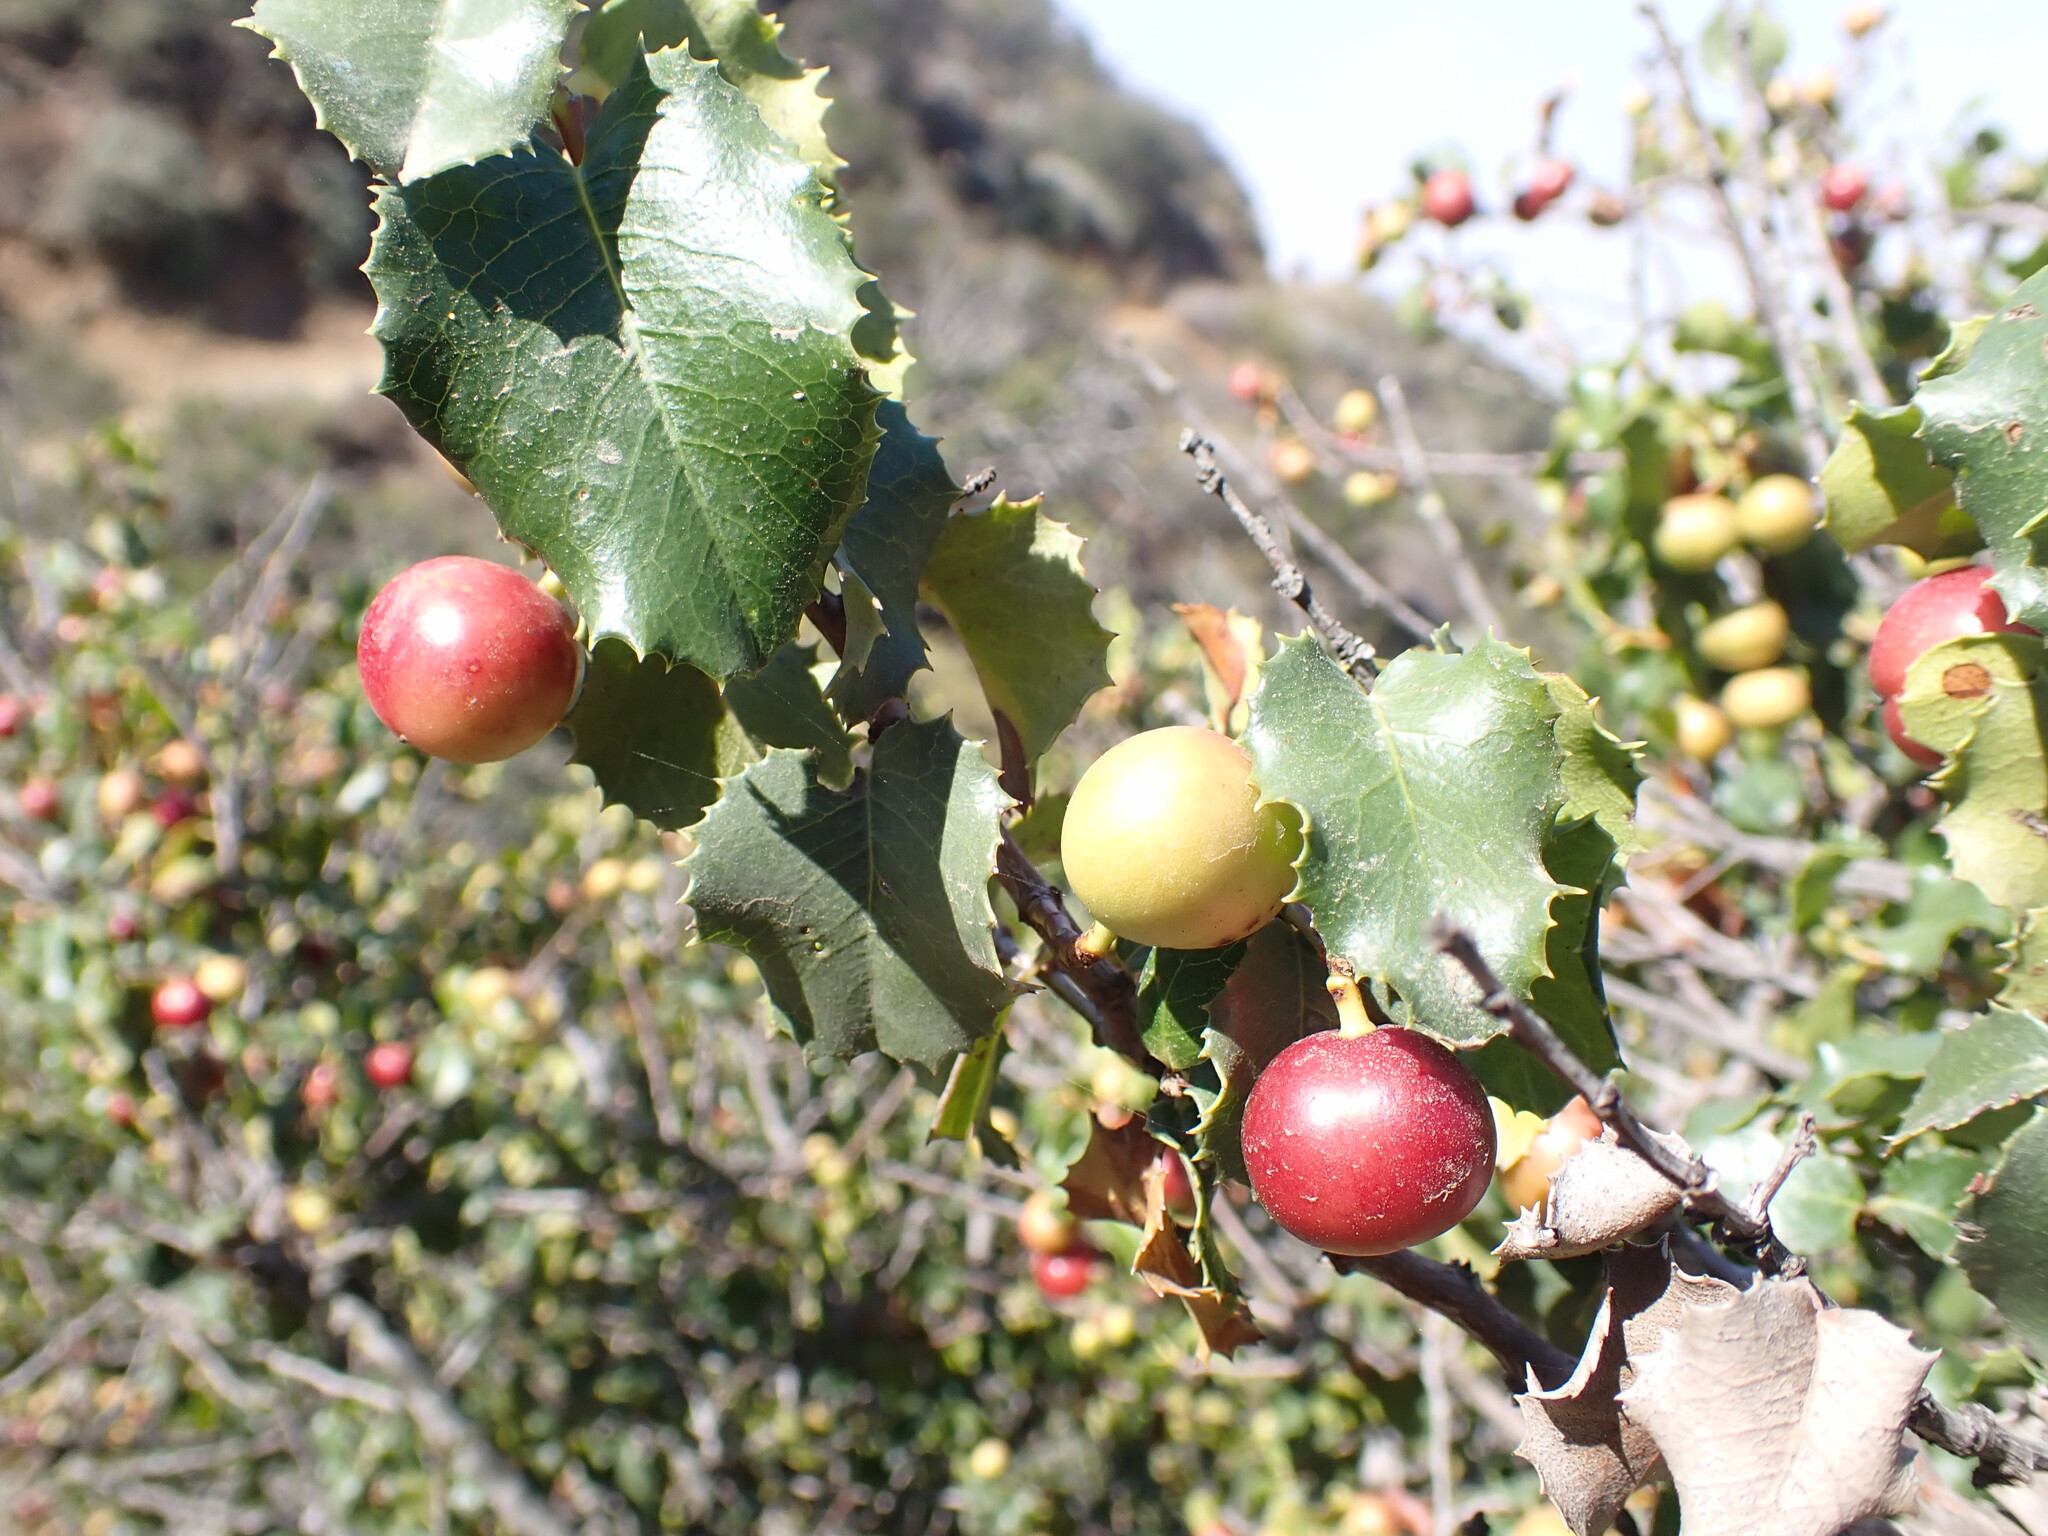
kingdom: Plantae
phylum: Tracheophyta
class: Magnoliopsida
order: Rosales
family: Rosaceae
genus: Prunus
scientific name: Prunus ilicifolia
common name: Hollyleaf cherry
